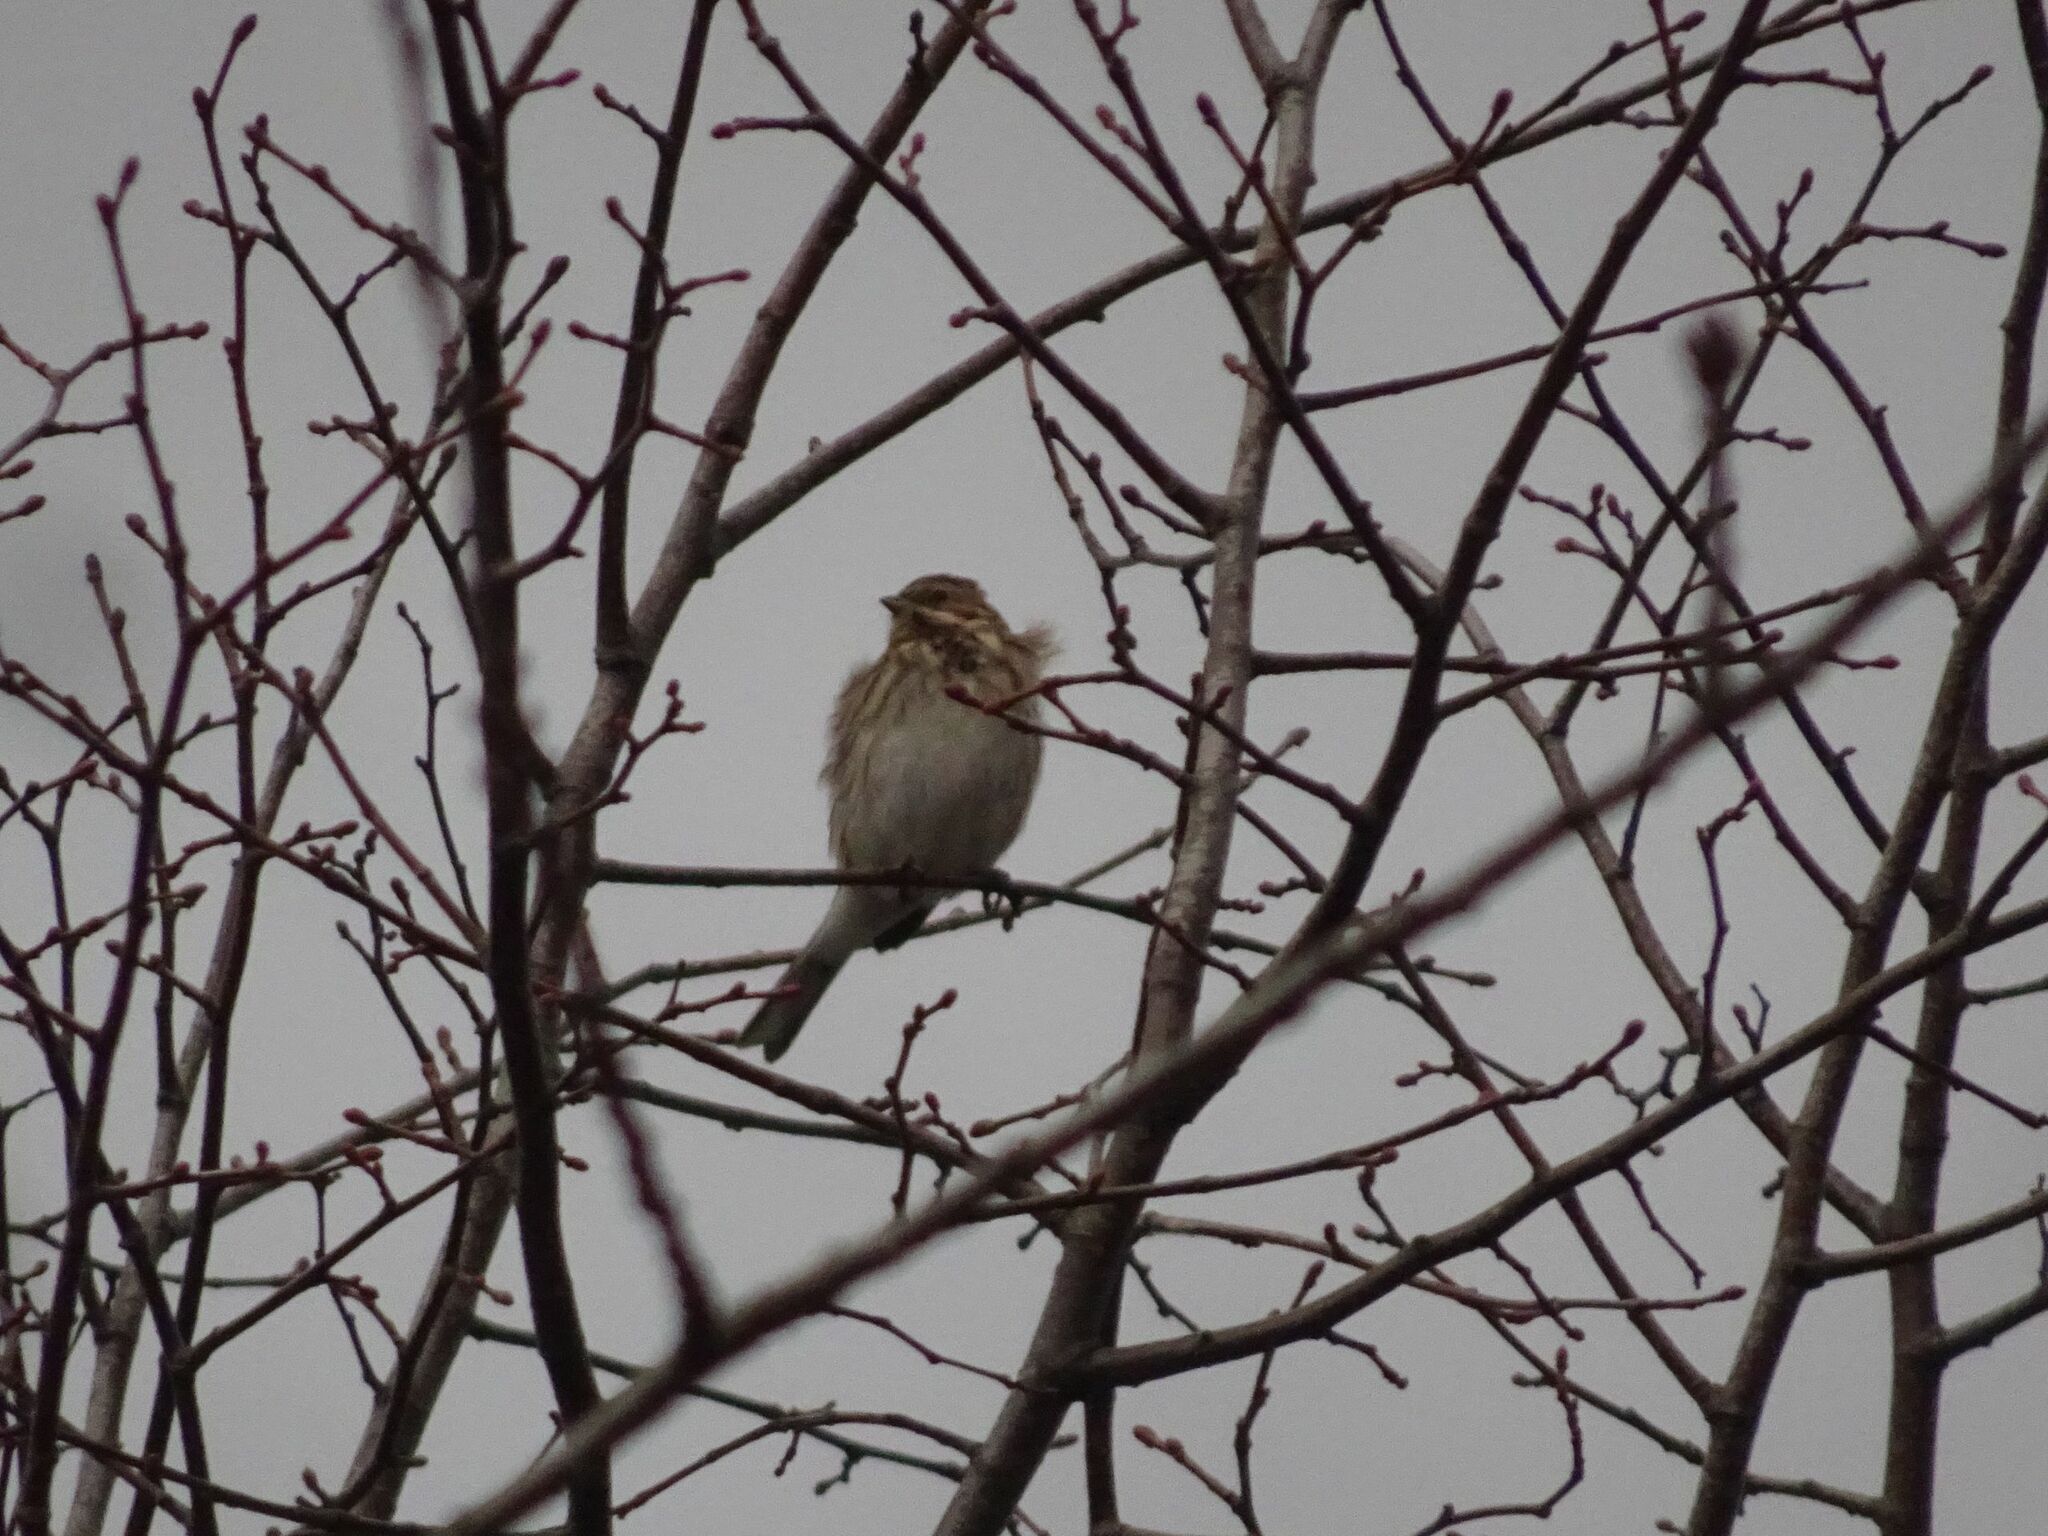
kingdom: Animalia
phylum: Chordata
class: Aves
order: Passeriformes
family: Emberizidae
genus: Emberiza
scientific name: Emberiza schoeniclus
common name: Reed bunting
